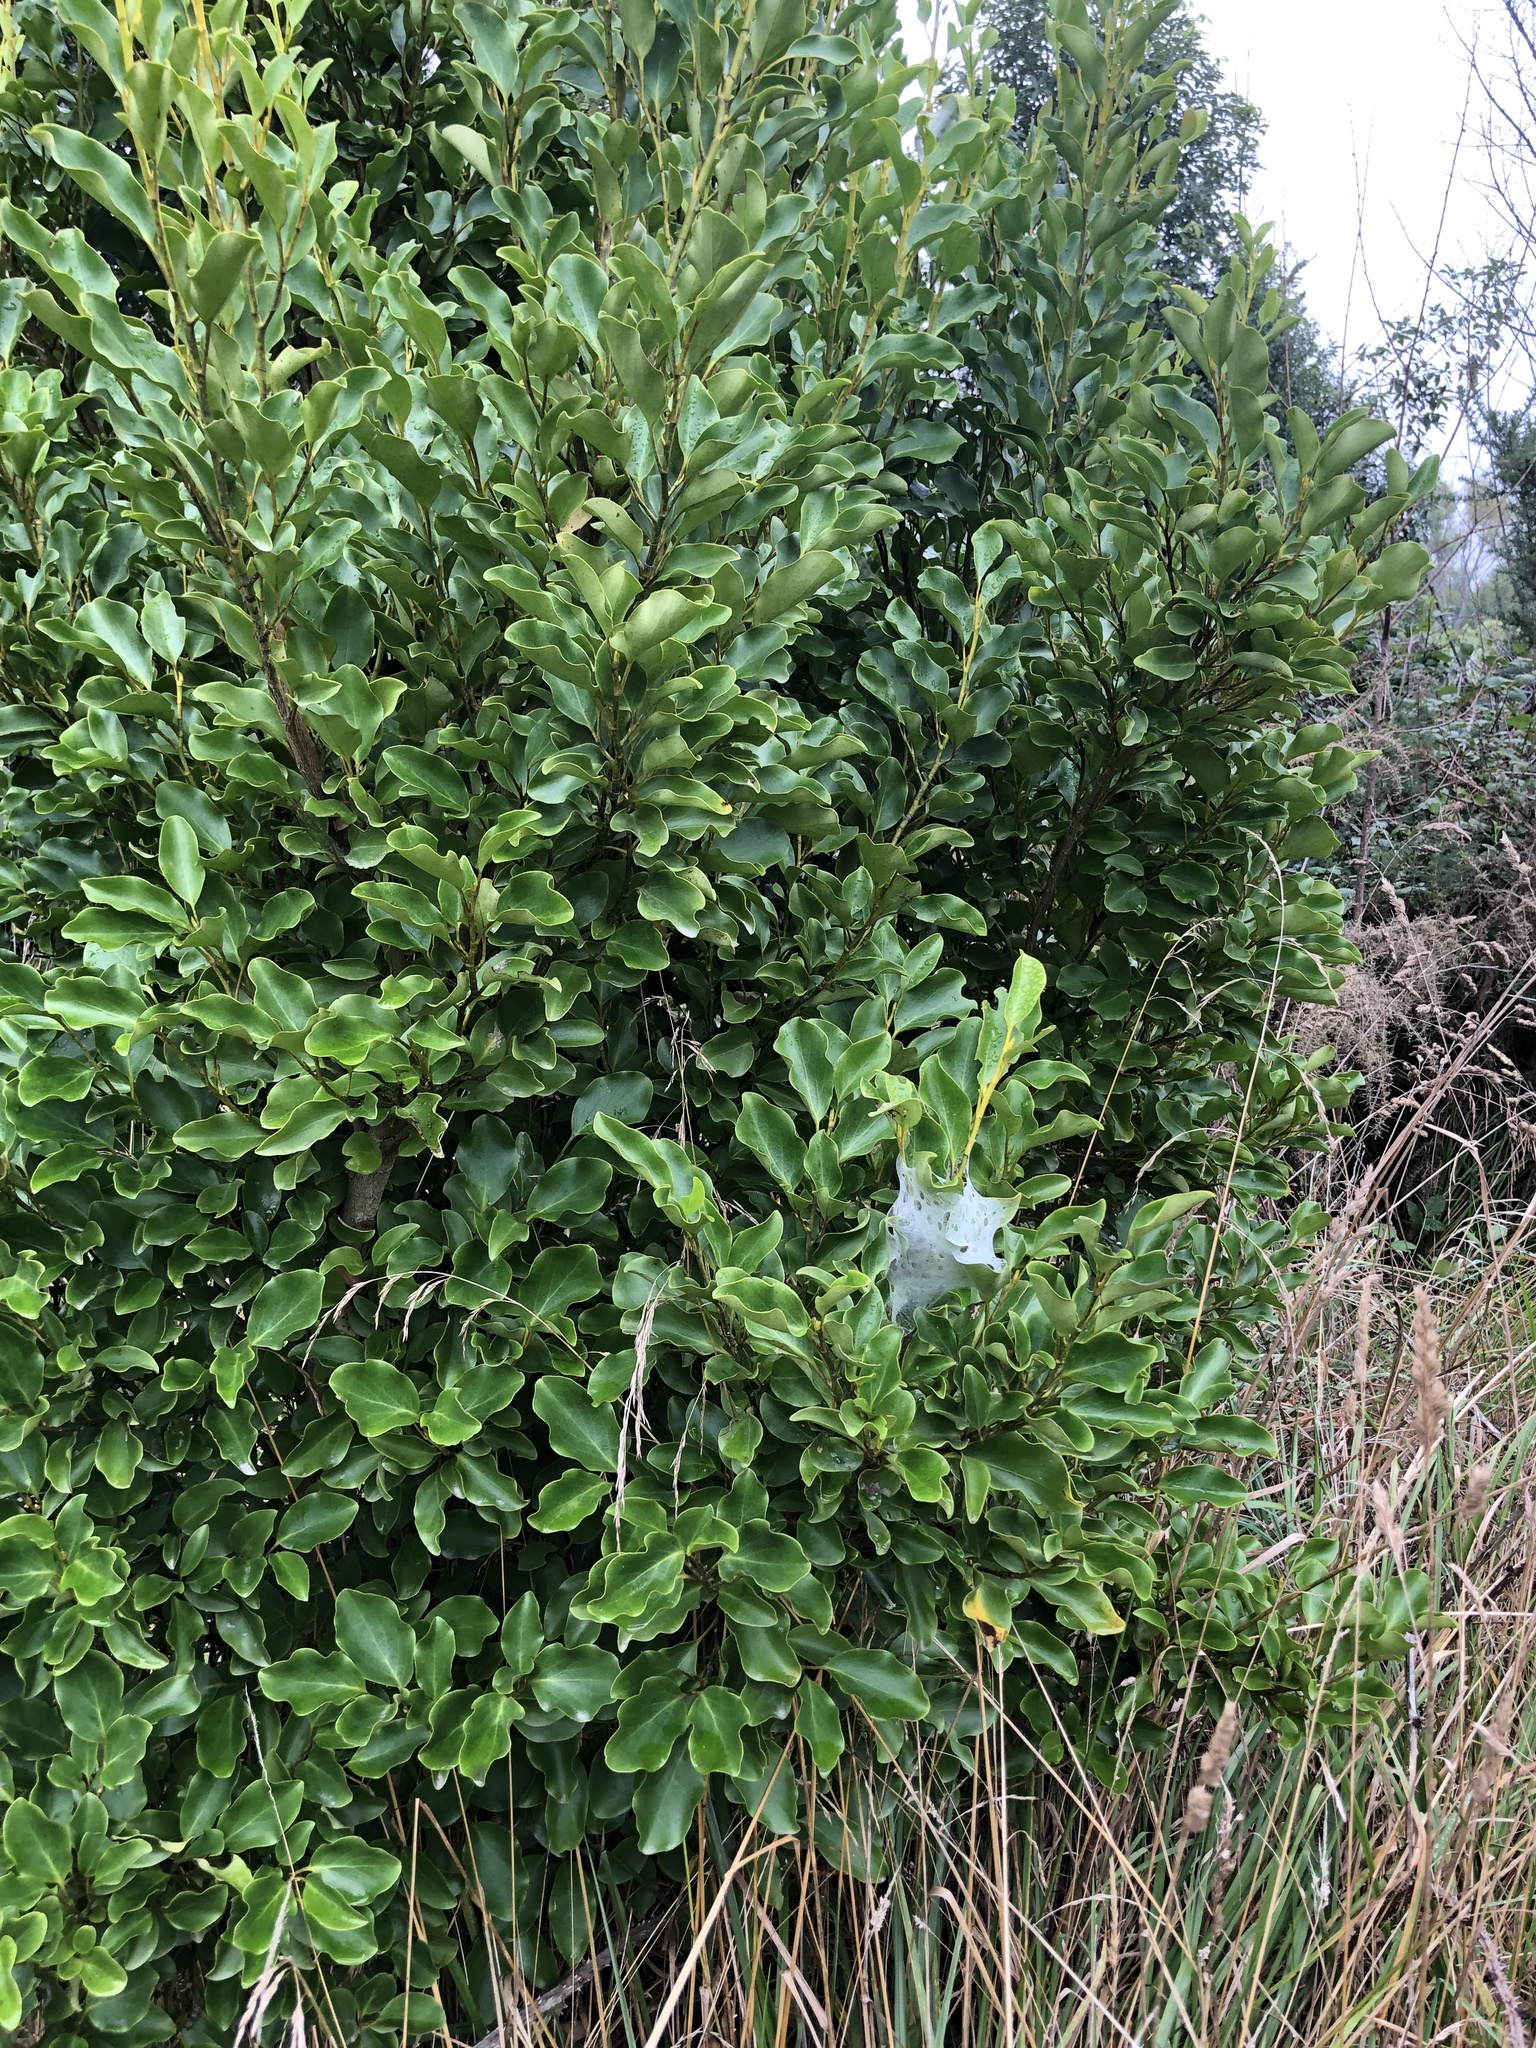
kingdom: Animalia
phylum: Arthropoda
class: Arachnida
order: Araneae
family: Pisauridae
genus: Dolomedes
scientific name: Dolomedes minor
